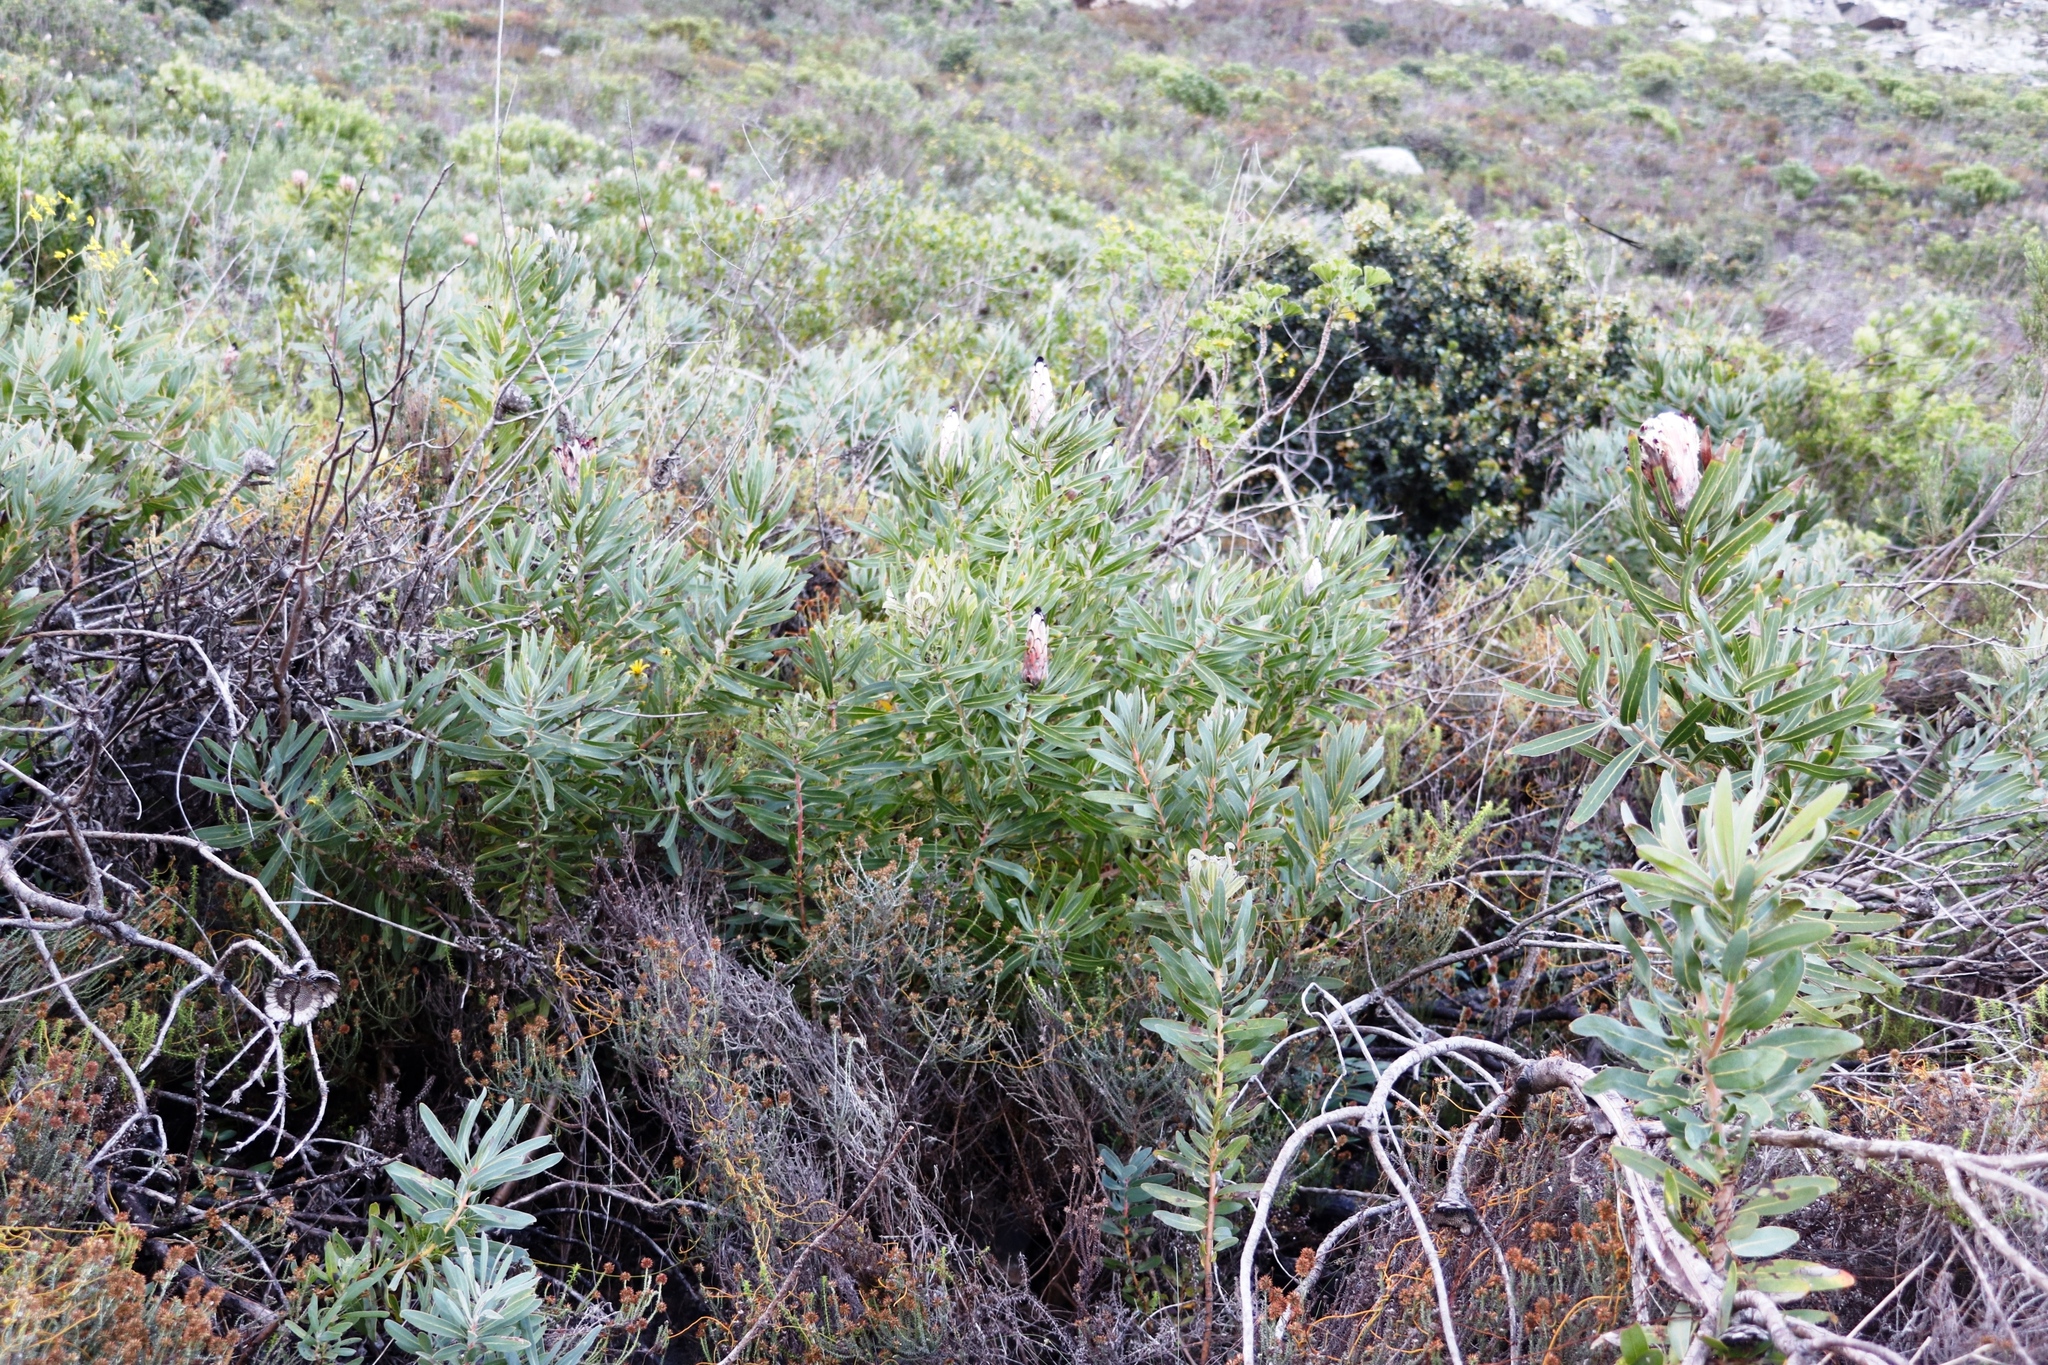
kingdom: Plantae
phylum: Tracheophyta
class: Magnoliopsida
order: Proteales
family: Proteaceae
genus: Protea
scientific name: Protea
